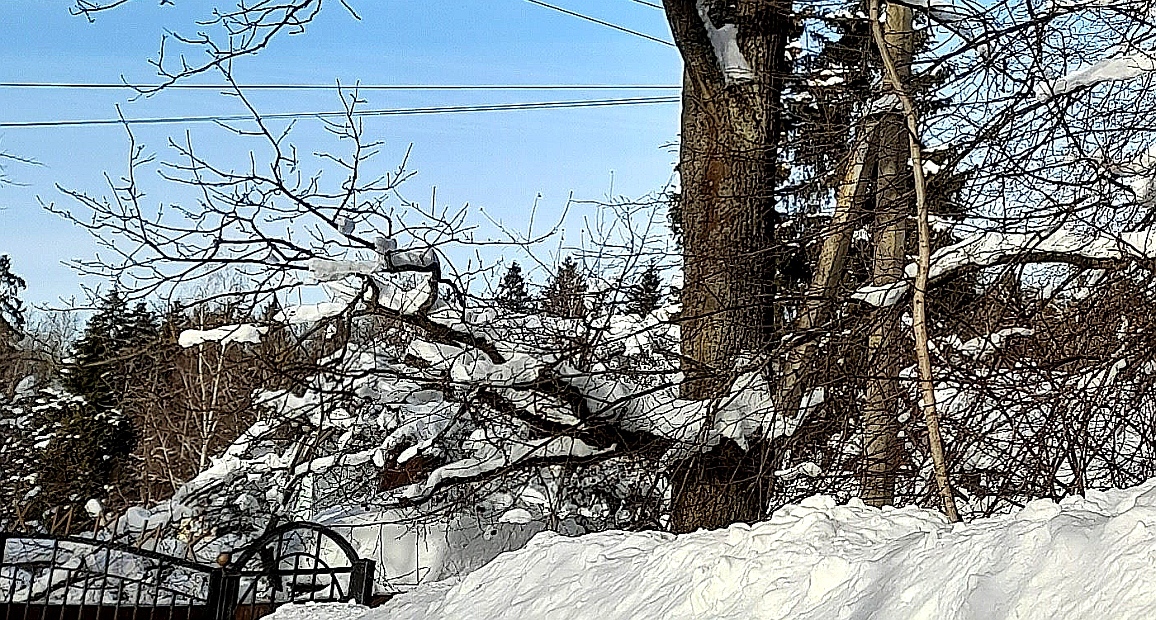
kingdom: Plantae
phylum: Tracheophyta
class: Magnoliopsida
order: Fagales
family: Fagaceae
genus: Quercus
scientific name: Quercus robur
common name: Pedunculate oak
